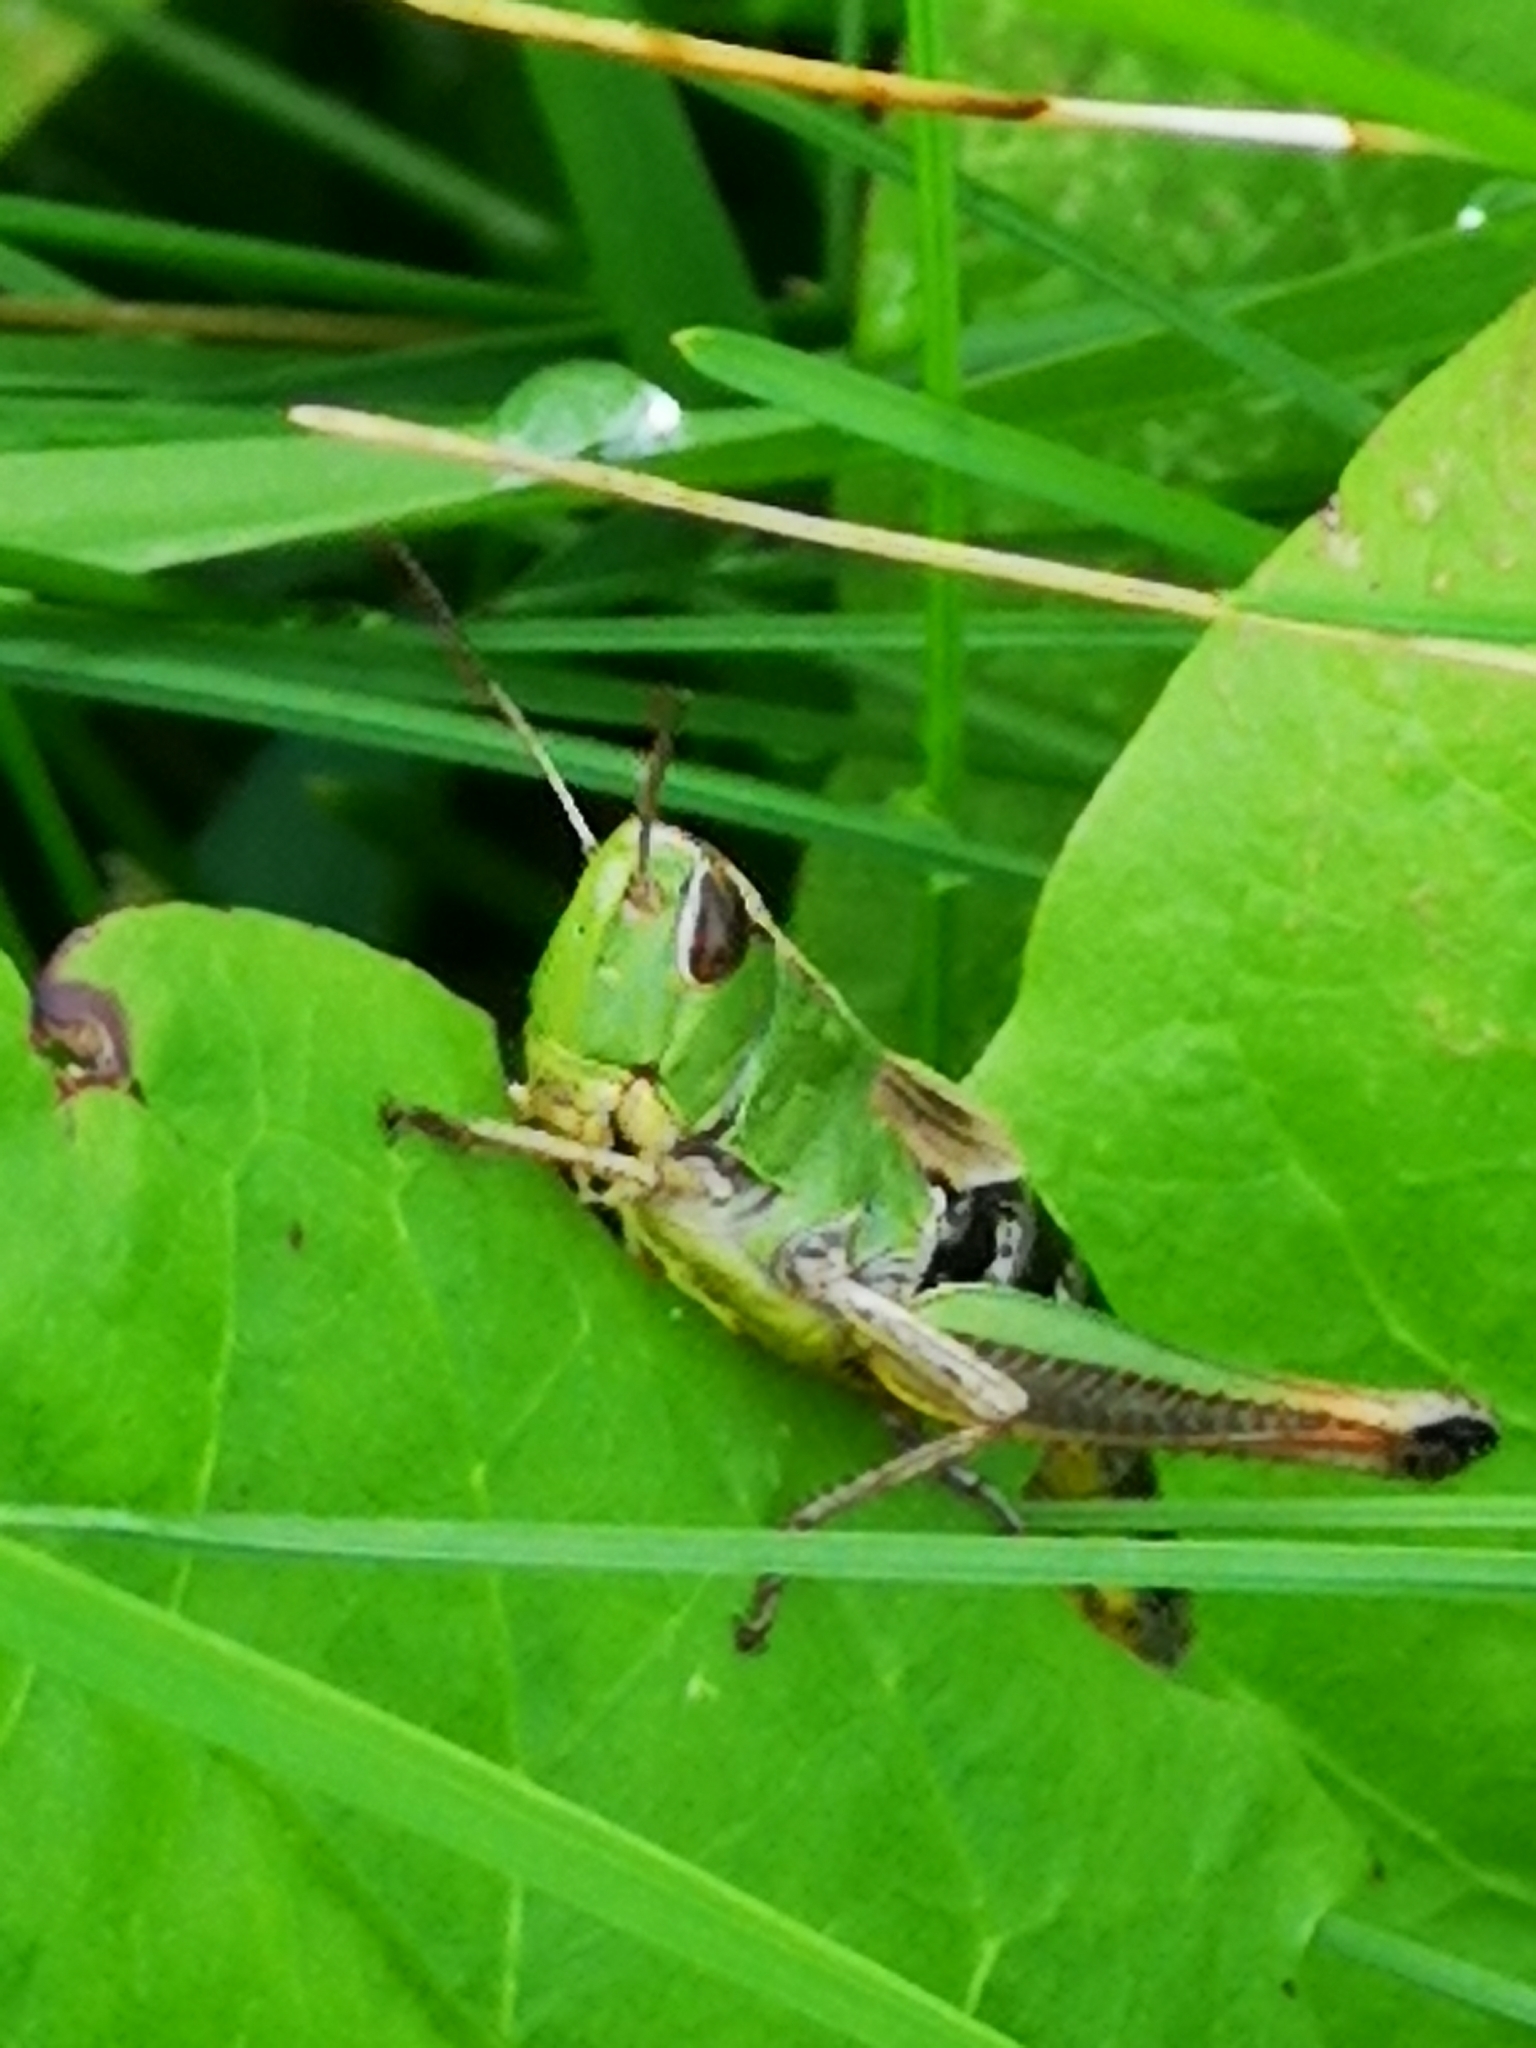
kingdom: Animalia
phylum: Arthropoda
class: Insecta
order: Orthoptera
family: Acrididae
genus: Pseudochorthippus
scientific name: Pseudochorthippus parallelus
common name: Meadow grasshopper
